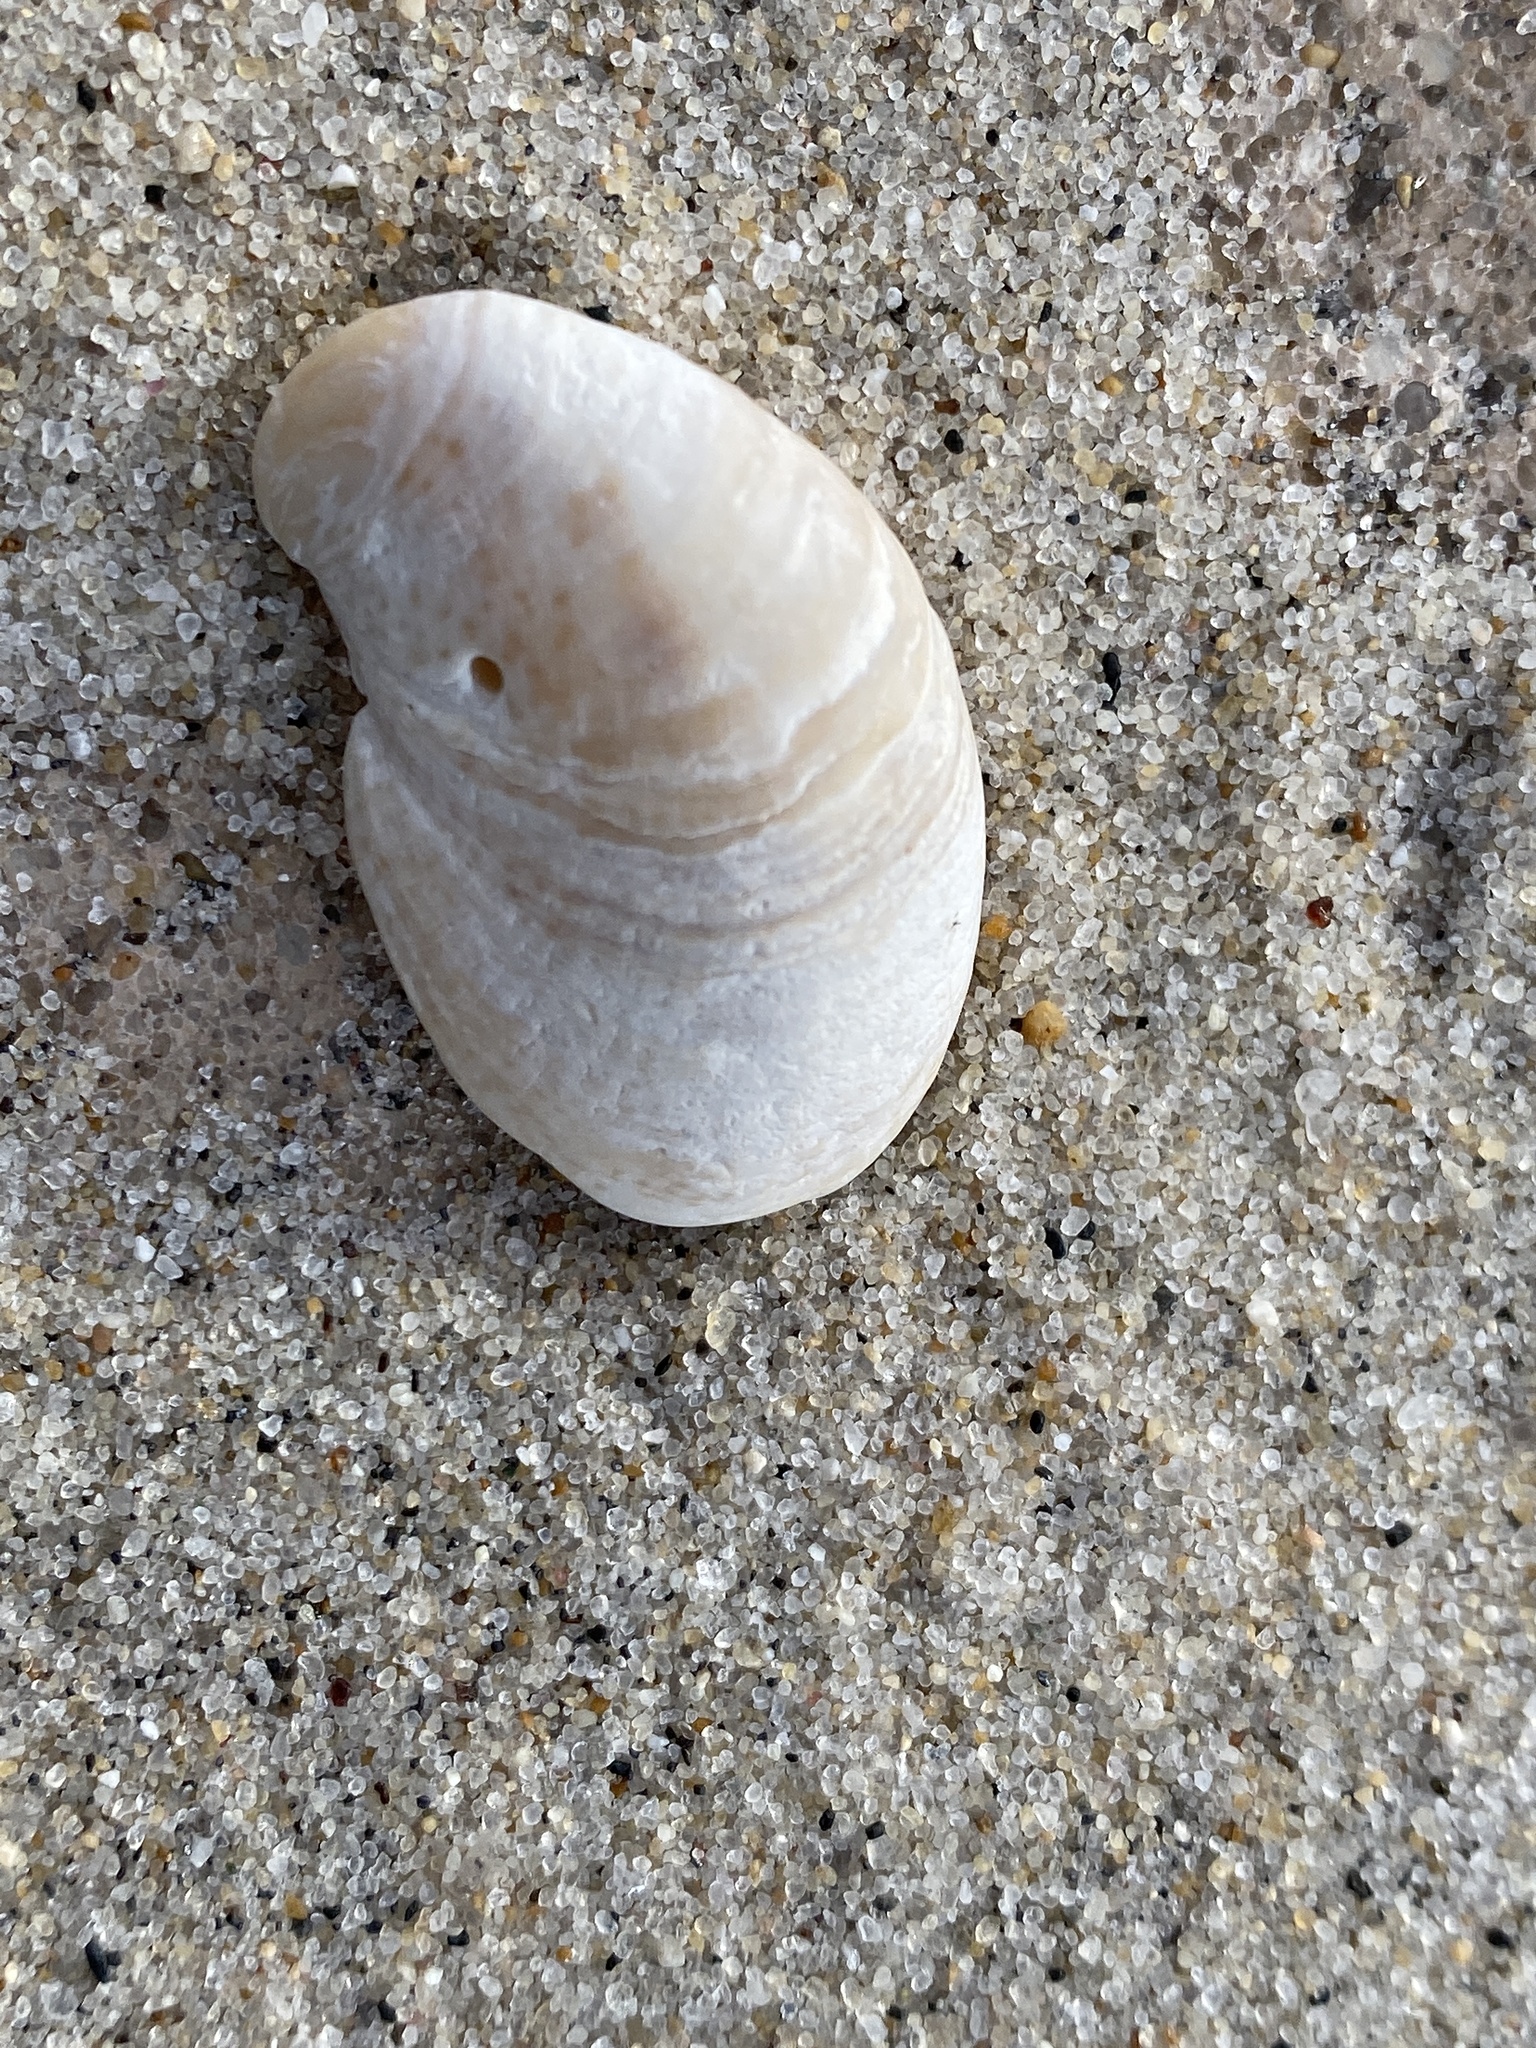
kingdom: Animalia
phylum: Mollusca
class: Gastropoda
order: Littorinimorpha
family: Calyptraeidae
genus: Crepidula
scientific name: Crepidula fornicata
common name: Slipper limpet
